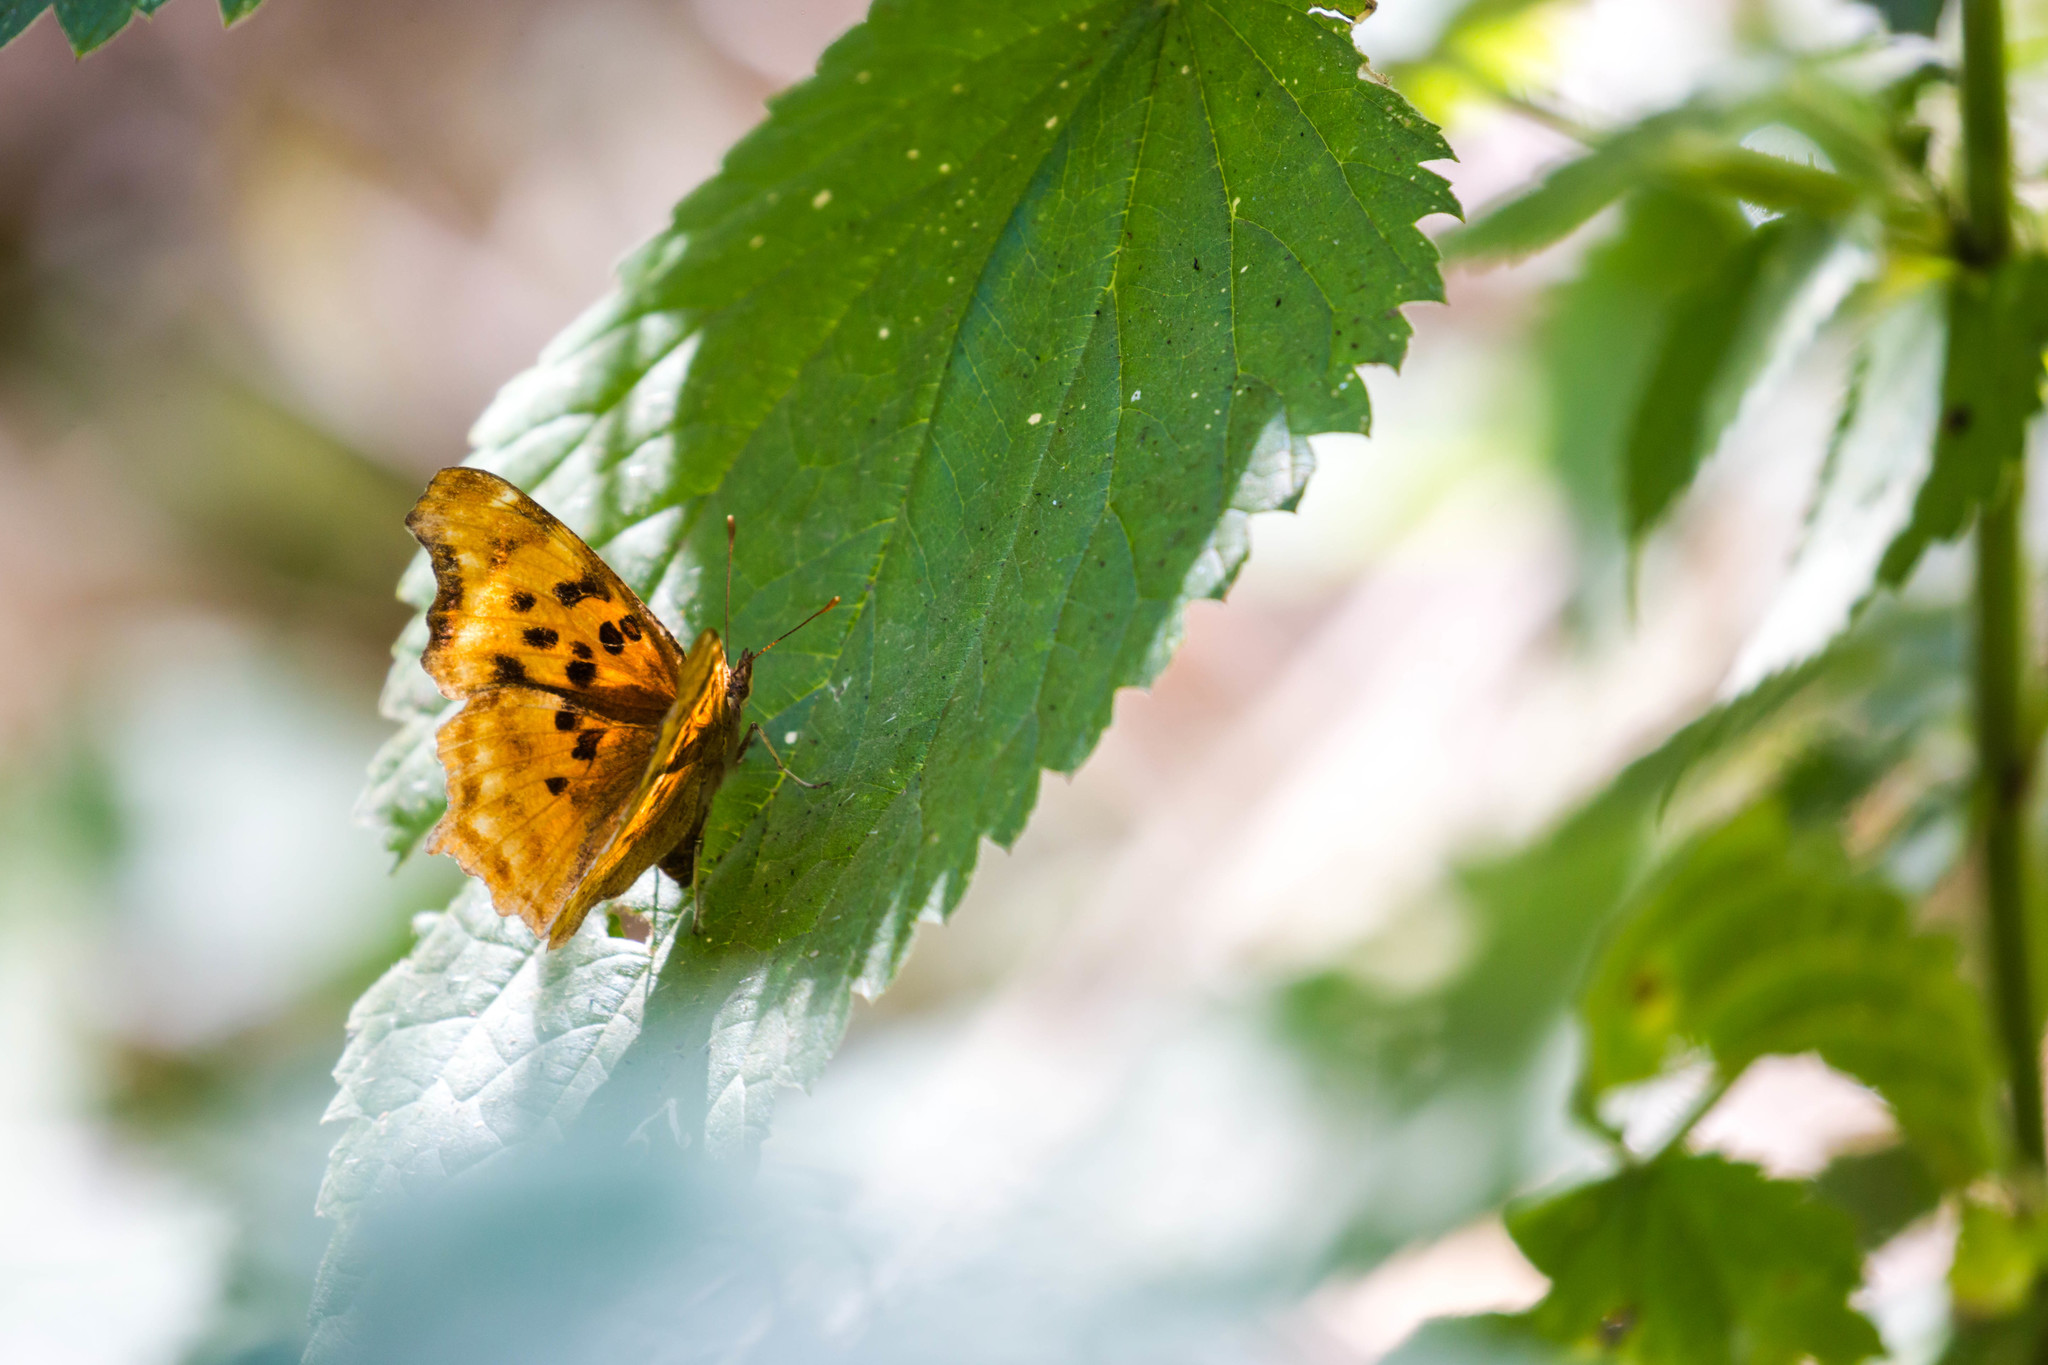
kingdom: Animalia
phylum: Arthropoda
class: Insecta
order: Lepidoptera
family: Nymphalidae
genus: Polygonia
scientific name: Polygonia satyrus
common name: Satyr angle wing
